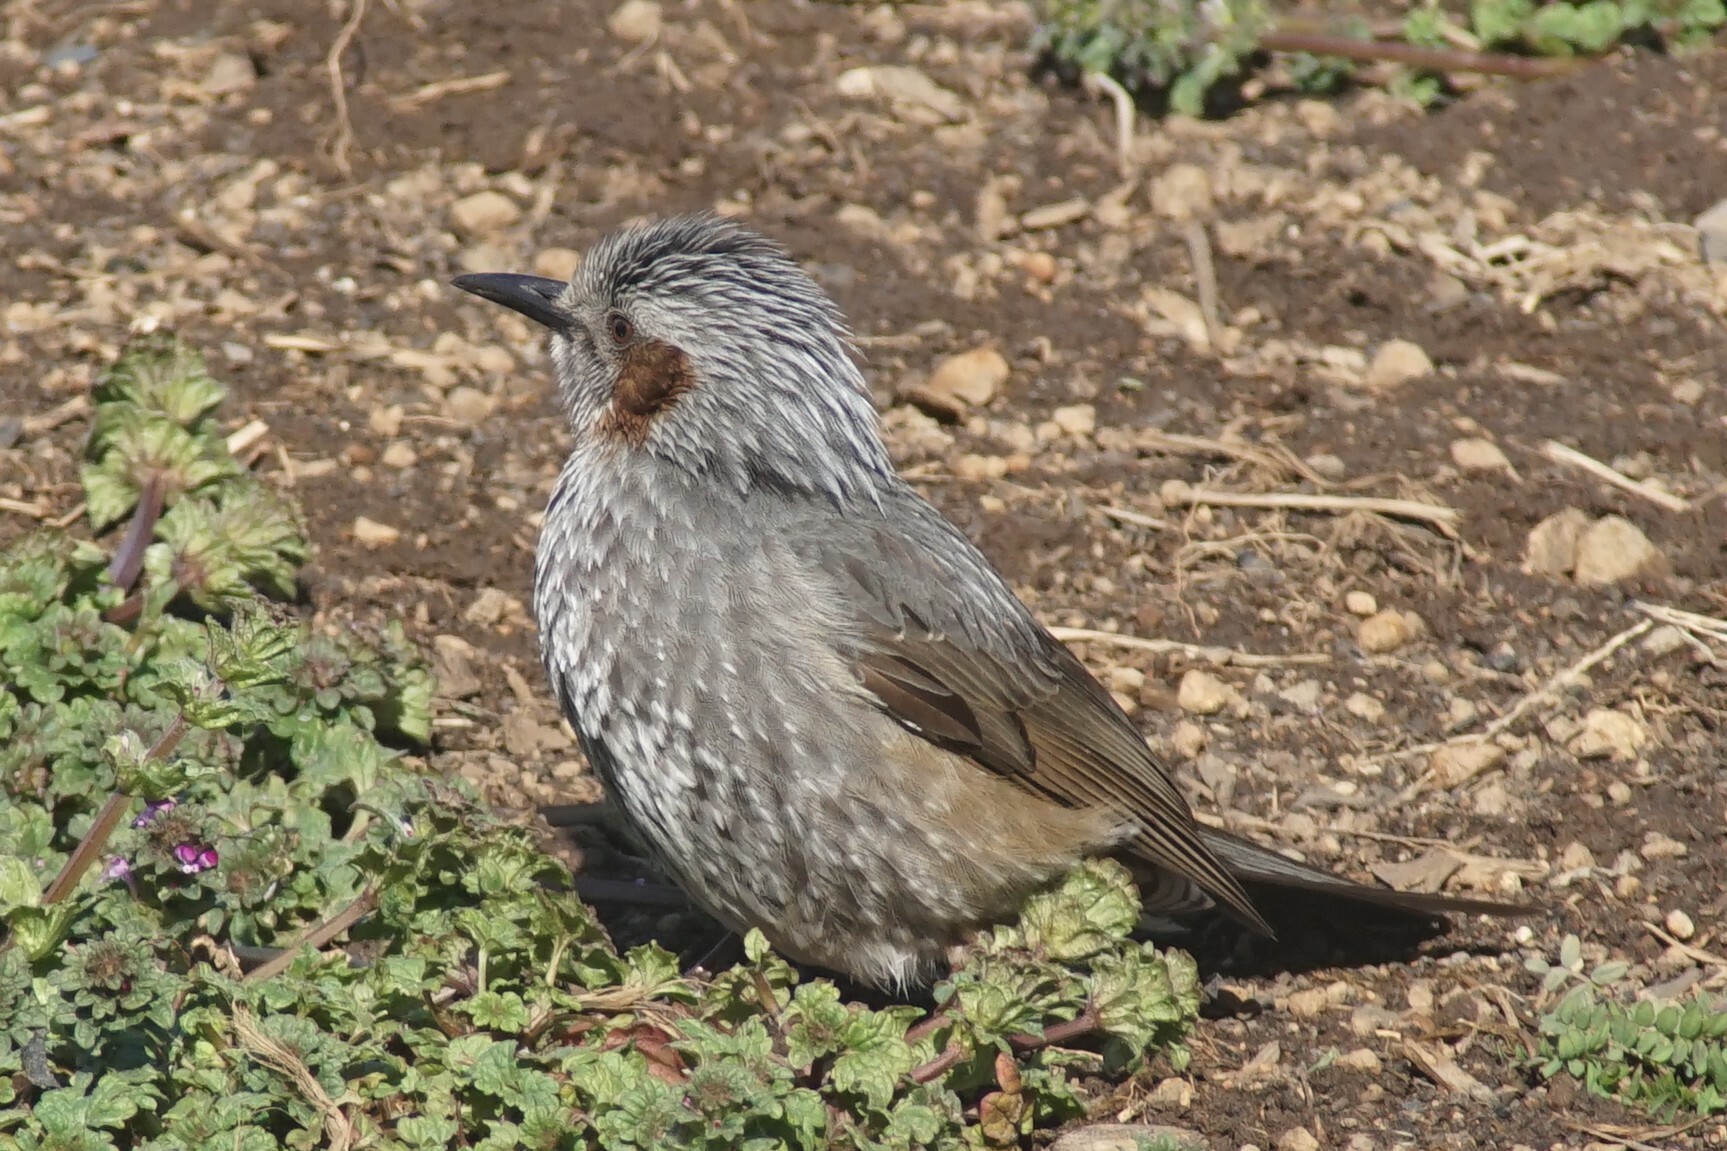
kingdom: Animalia
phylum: Chordata
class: Aves
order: Passeriformes
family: Pycnonotidae
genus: Hypsipetes
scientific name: Hypsipetes amaurotis
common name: Brown-eared bulbul
